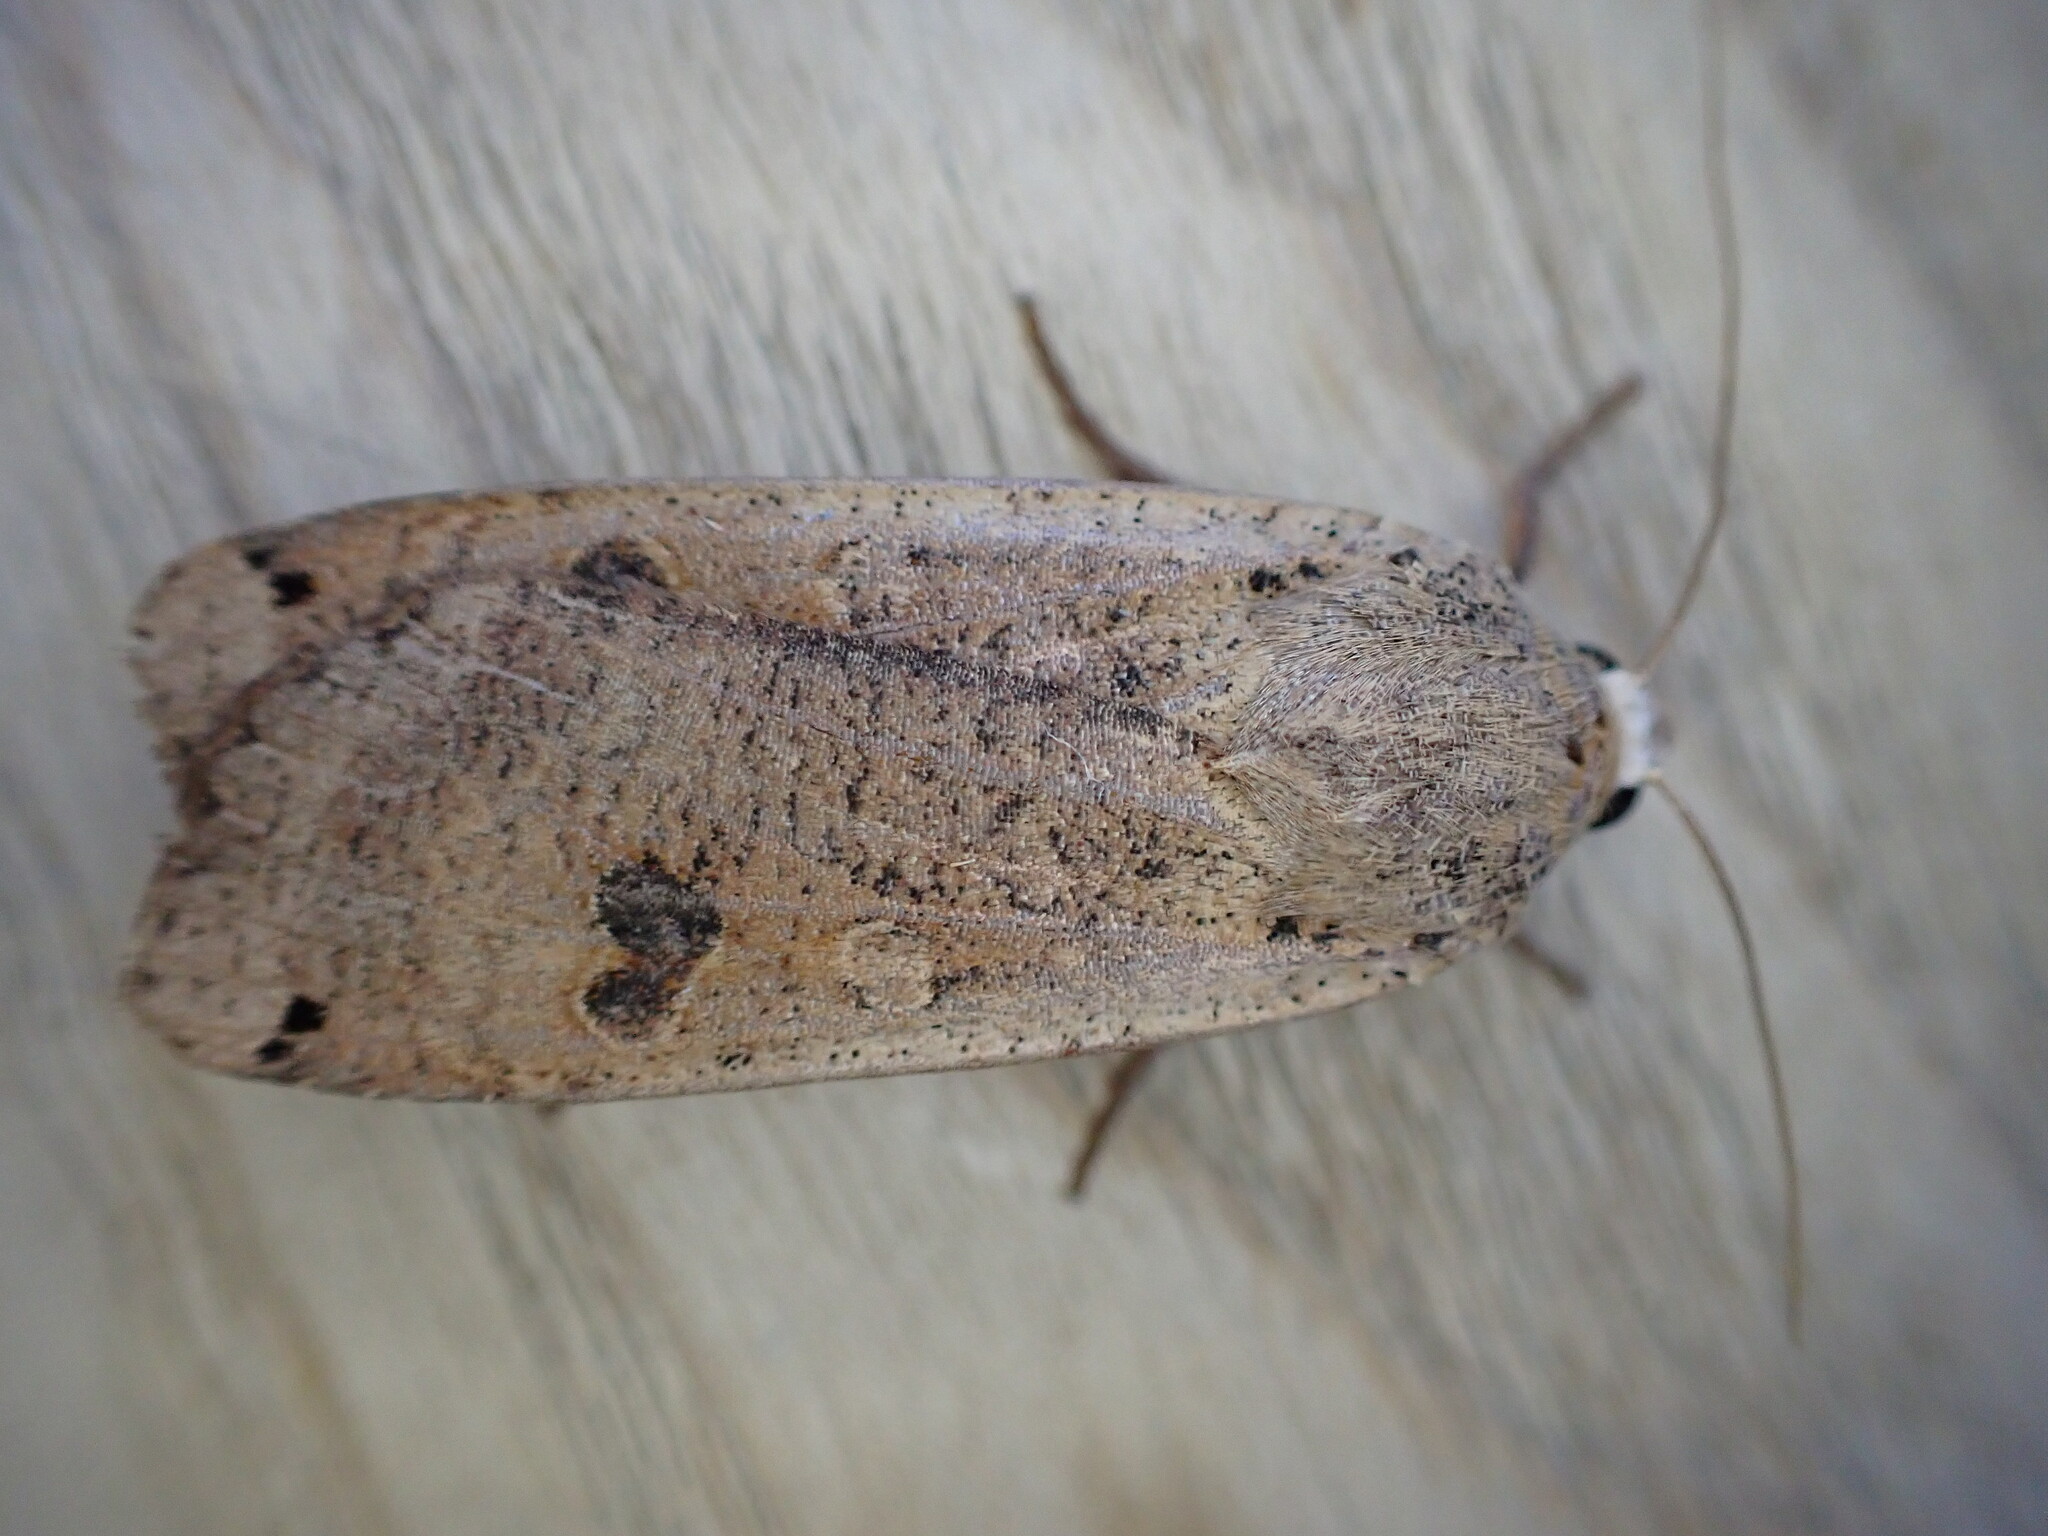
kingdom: Animalia
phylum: Arthropoda
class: Insecta
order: Lepidoptera
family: Noctuidae
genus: Noctua
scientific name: Noctua pronuba
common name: Large yellow underwing
